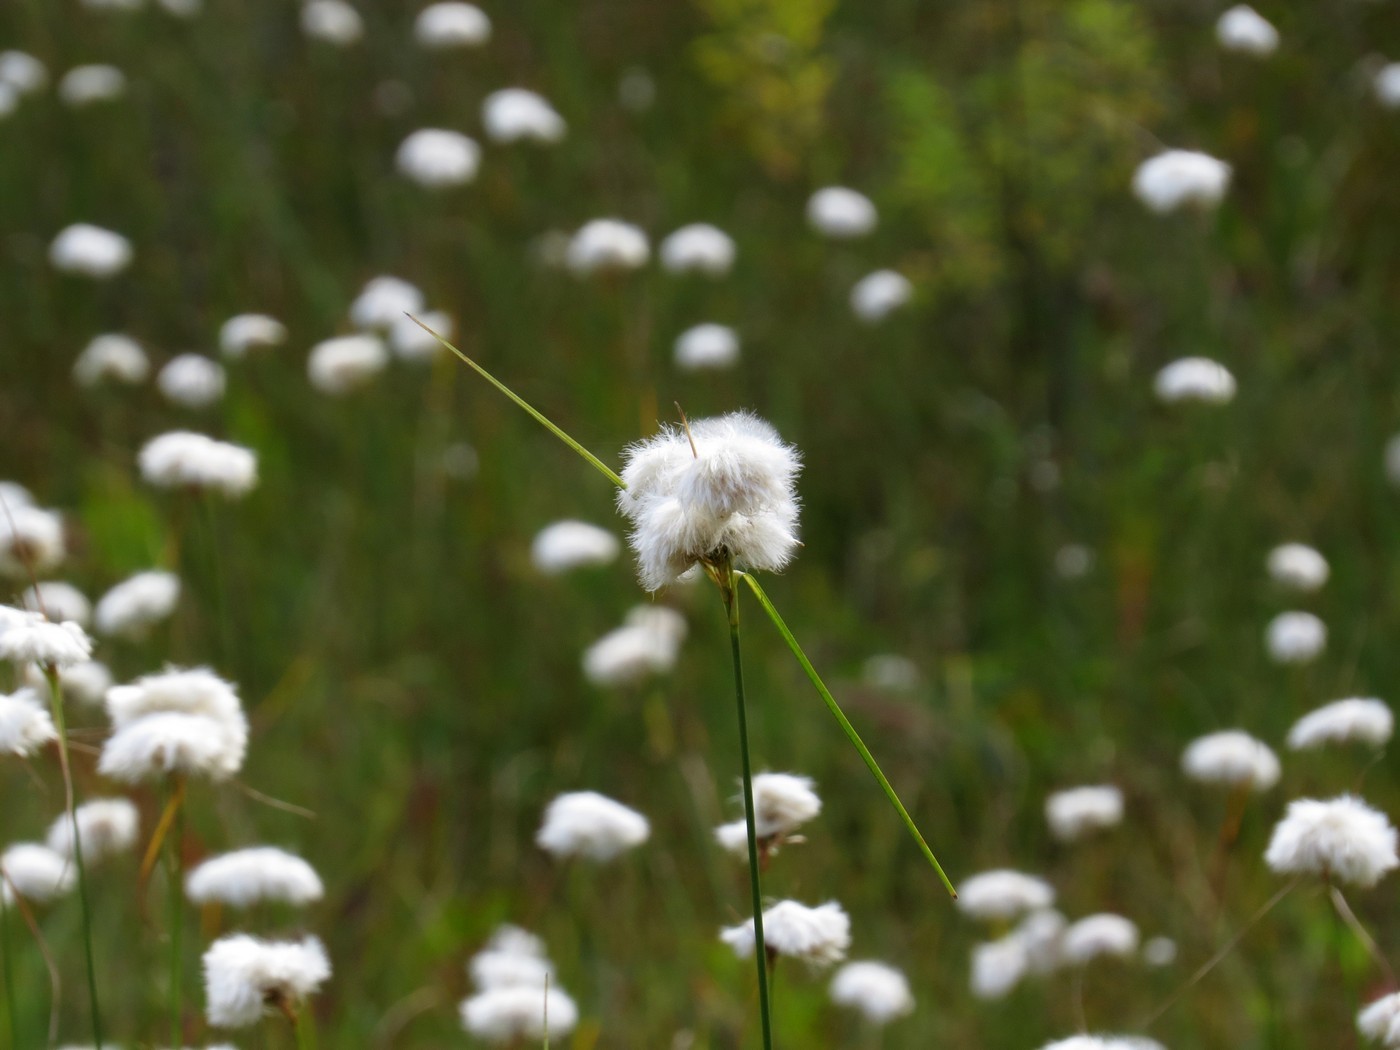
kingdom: Plantae
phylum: Tracheophyta
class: Liliopsida
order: Poales
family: Cyperaceae
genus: Eriophorum
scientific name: Eriophorum virginicum
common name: Tawny cottongrass
